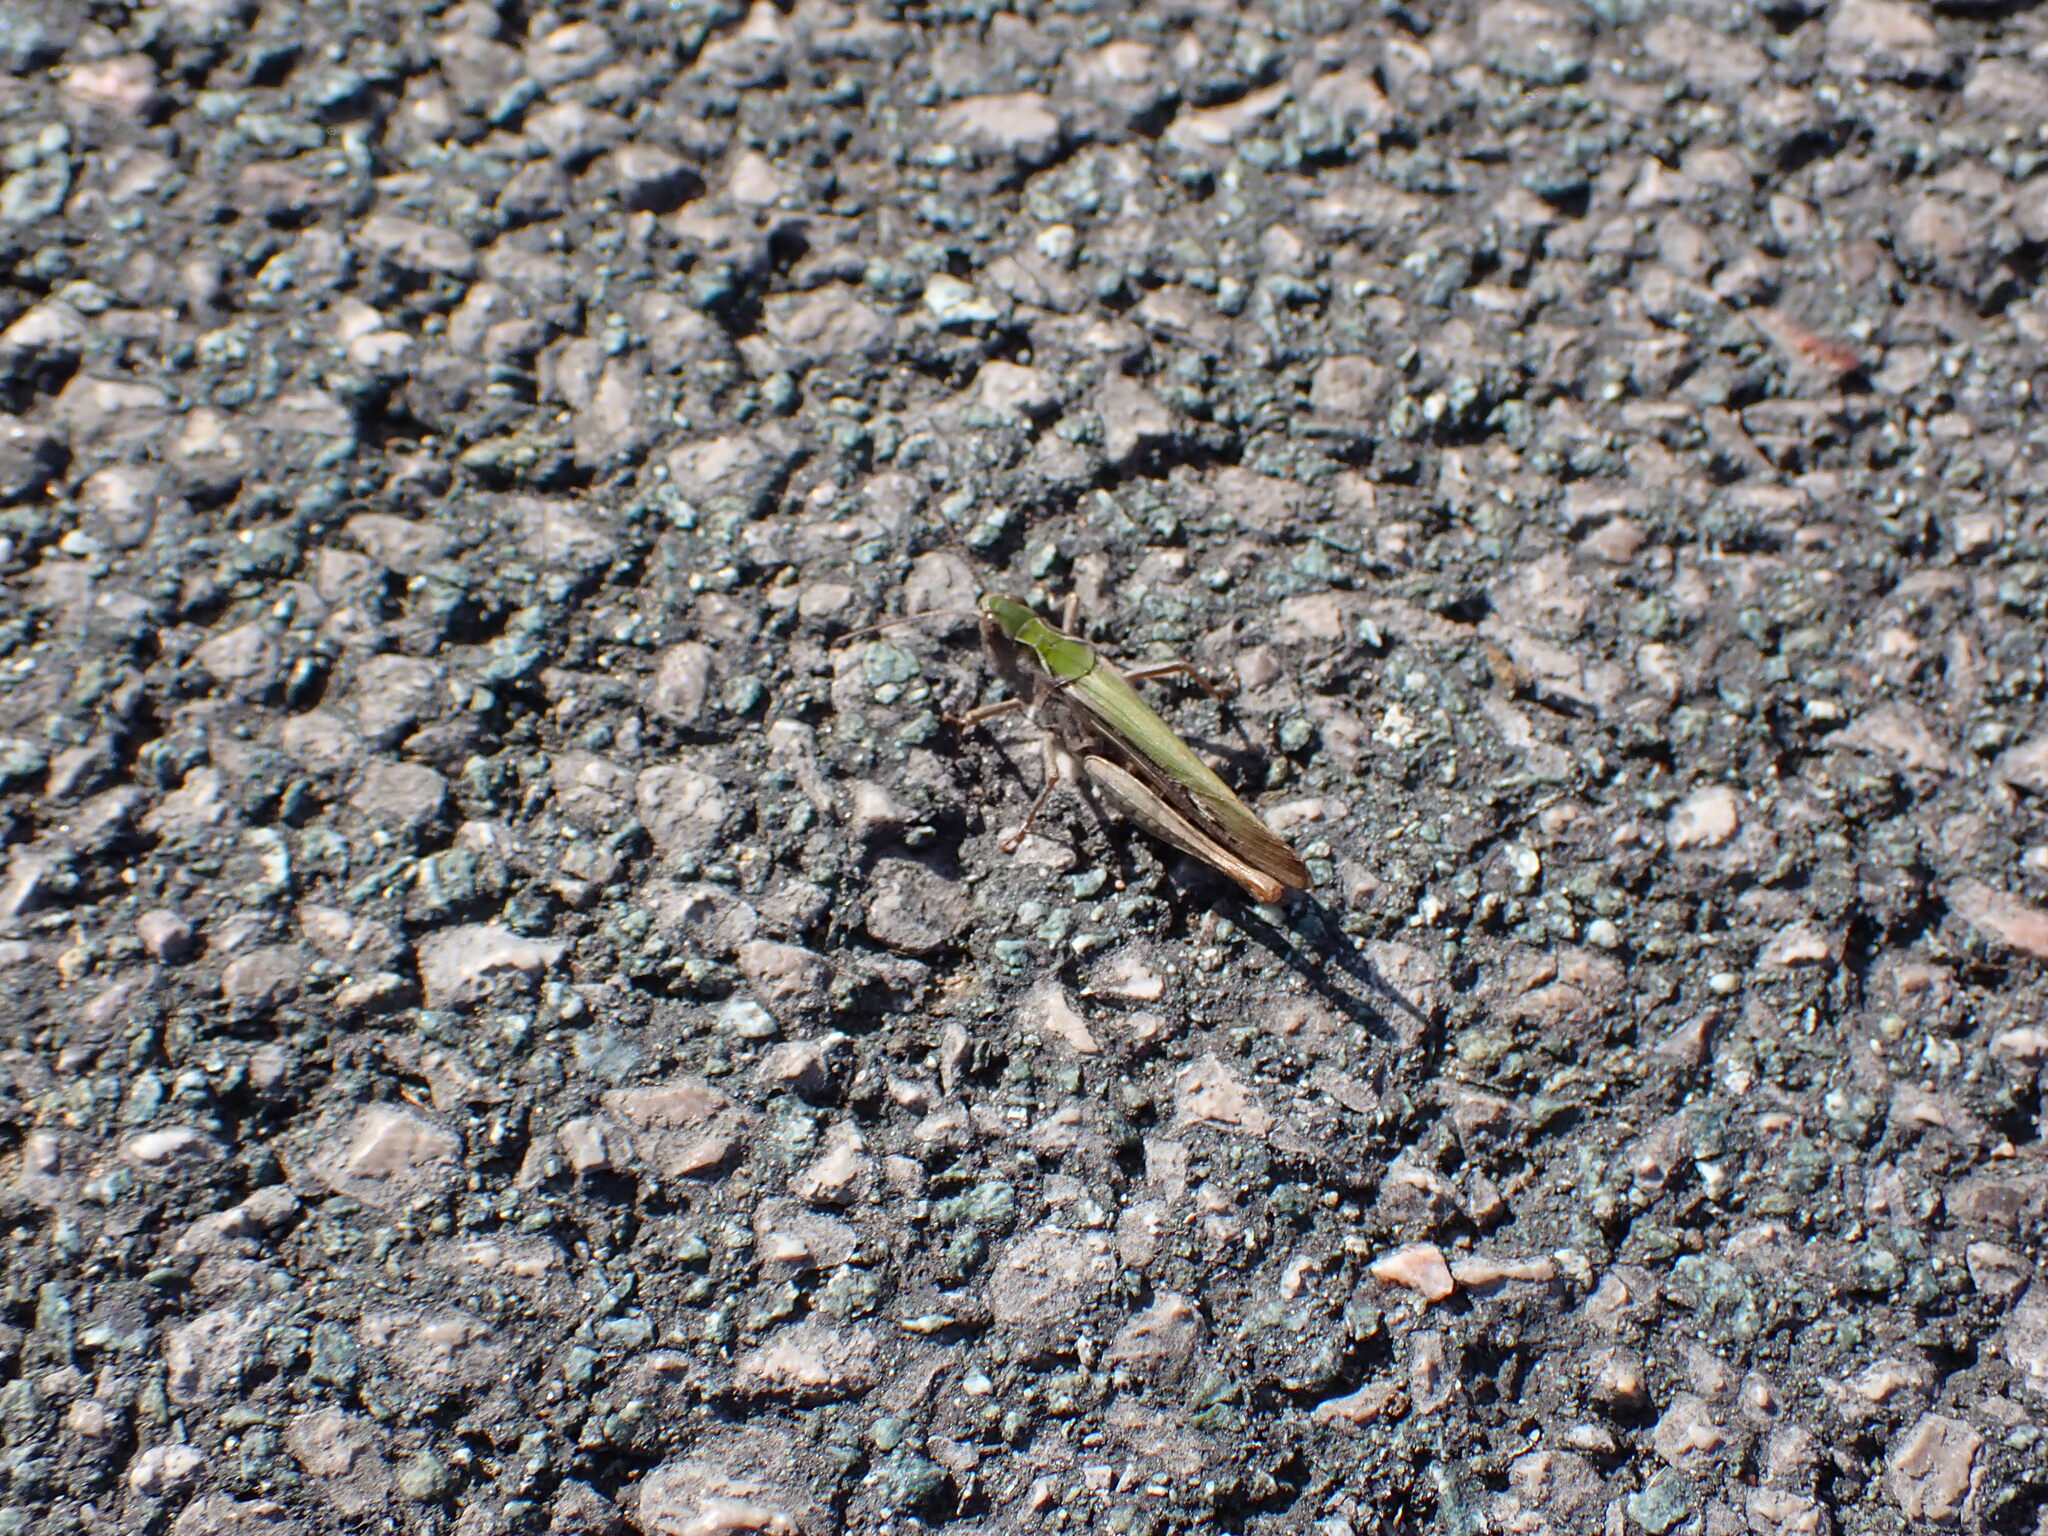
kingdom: Animalia
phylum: Arthropoda
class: Insecta
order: Orthoptera
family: Acrididae
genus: Chorthippus
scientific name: Chorthippus brunneus
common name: Field grasshopper
